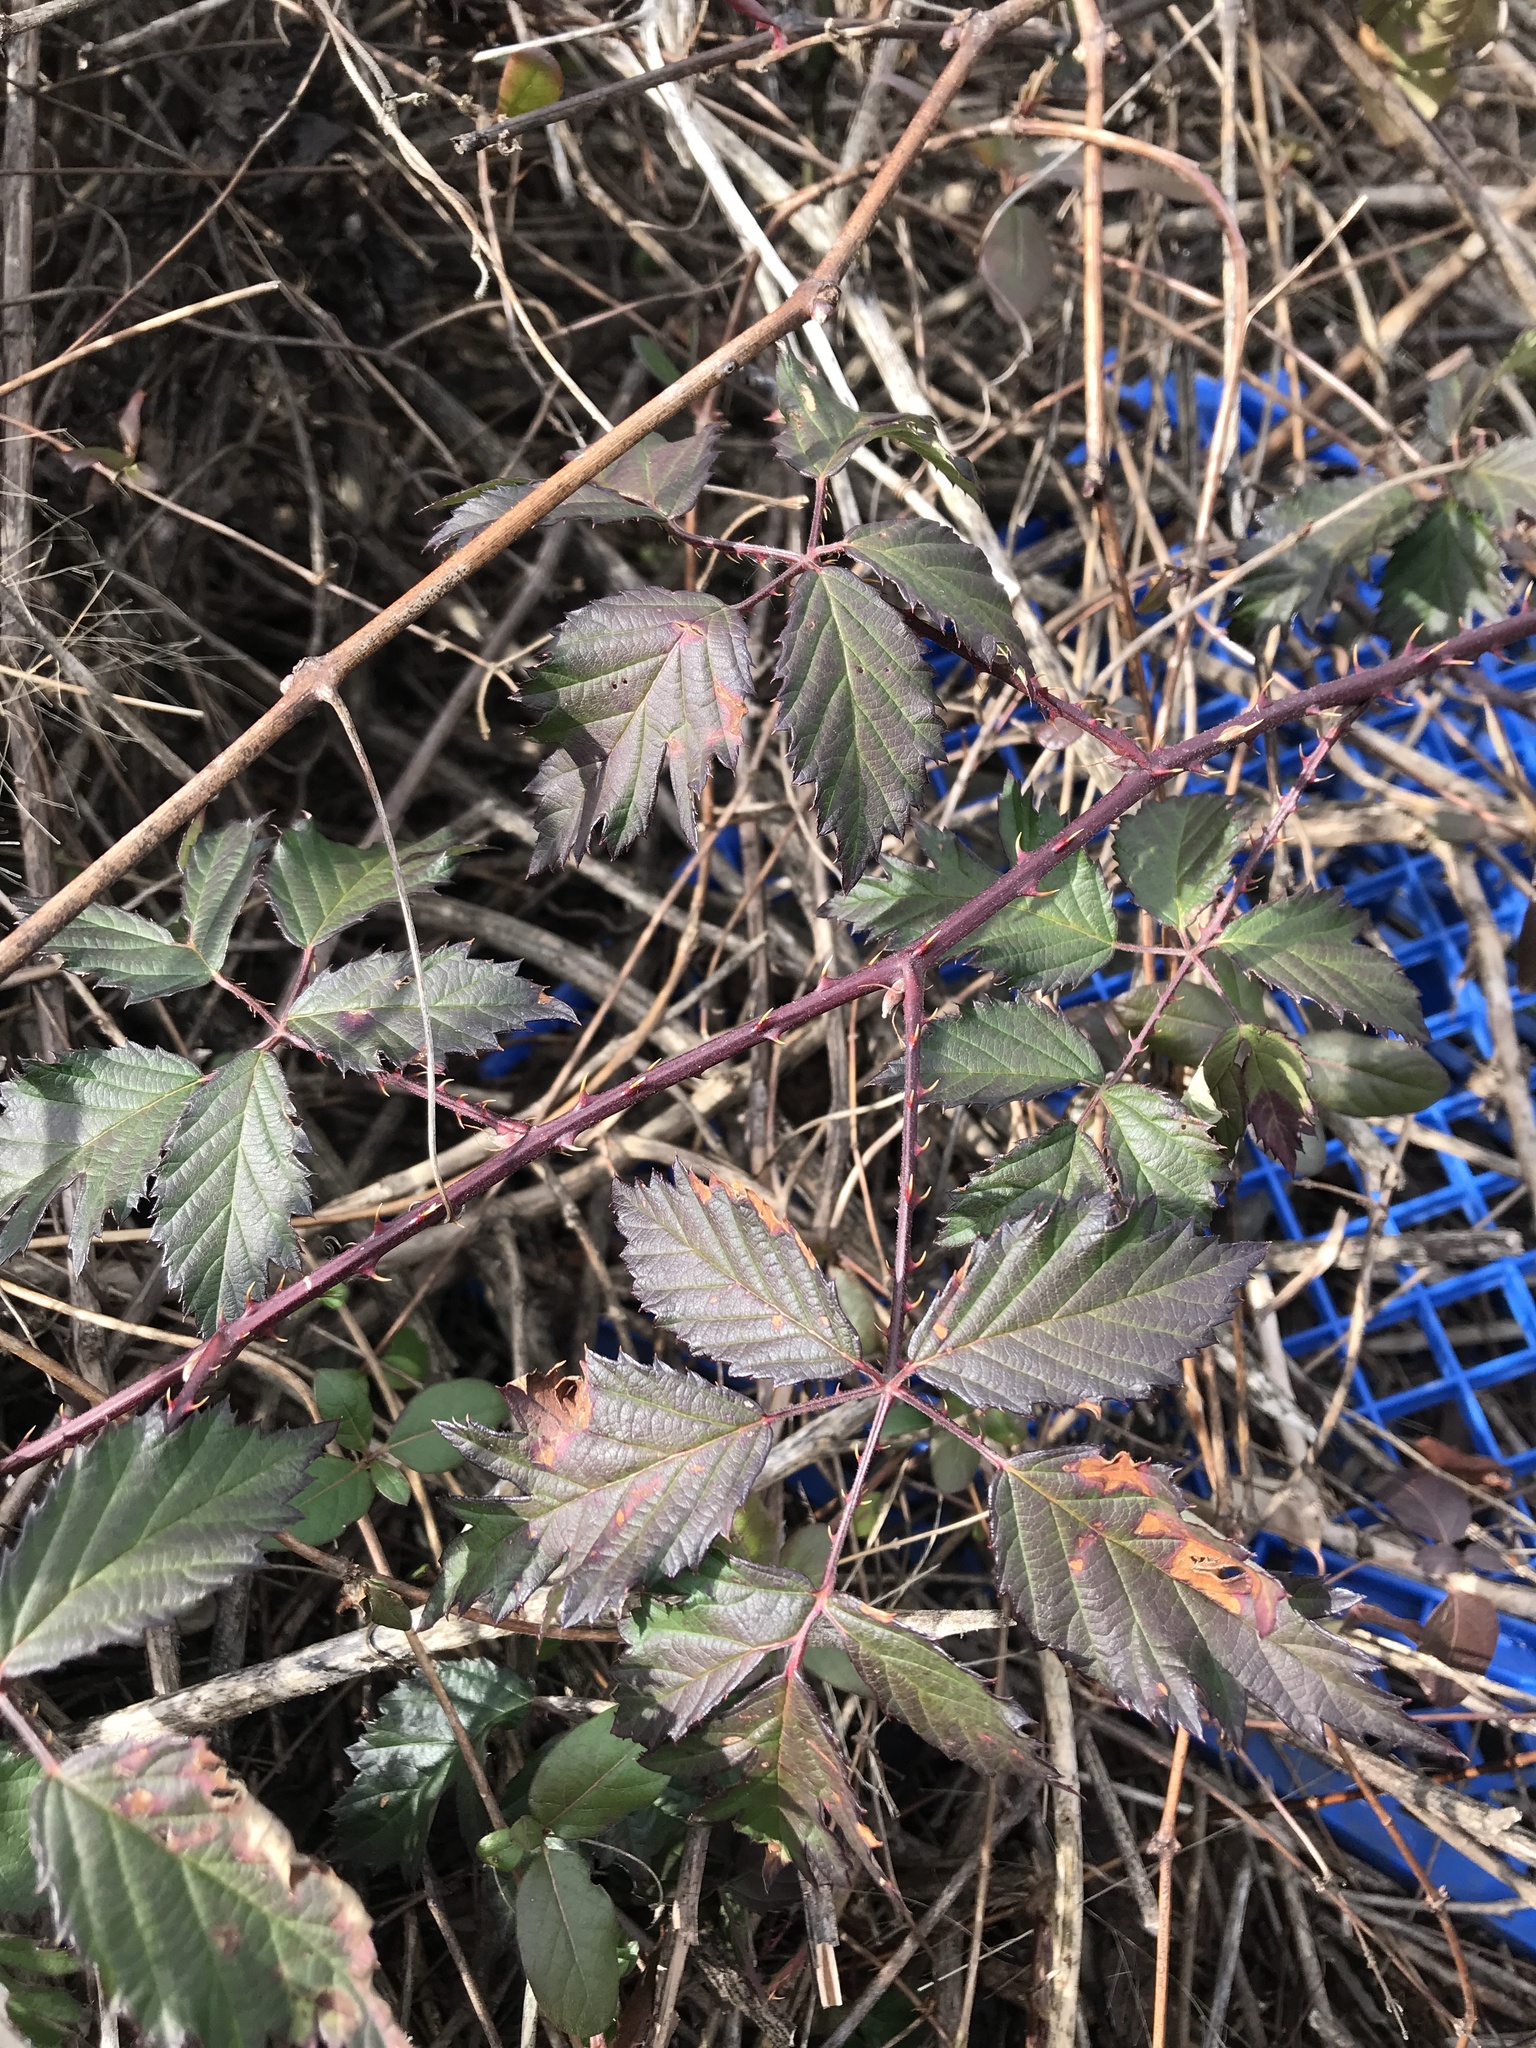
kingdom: Plantae
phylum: Tracheophyta
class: Magnoliopsida
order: Rosales
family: Rosaceae
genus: Rubus
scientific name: Rubus laciniatus
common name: Evergreen blackberry
